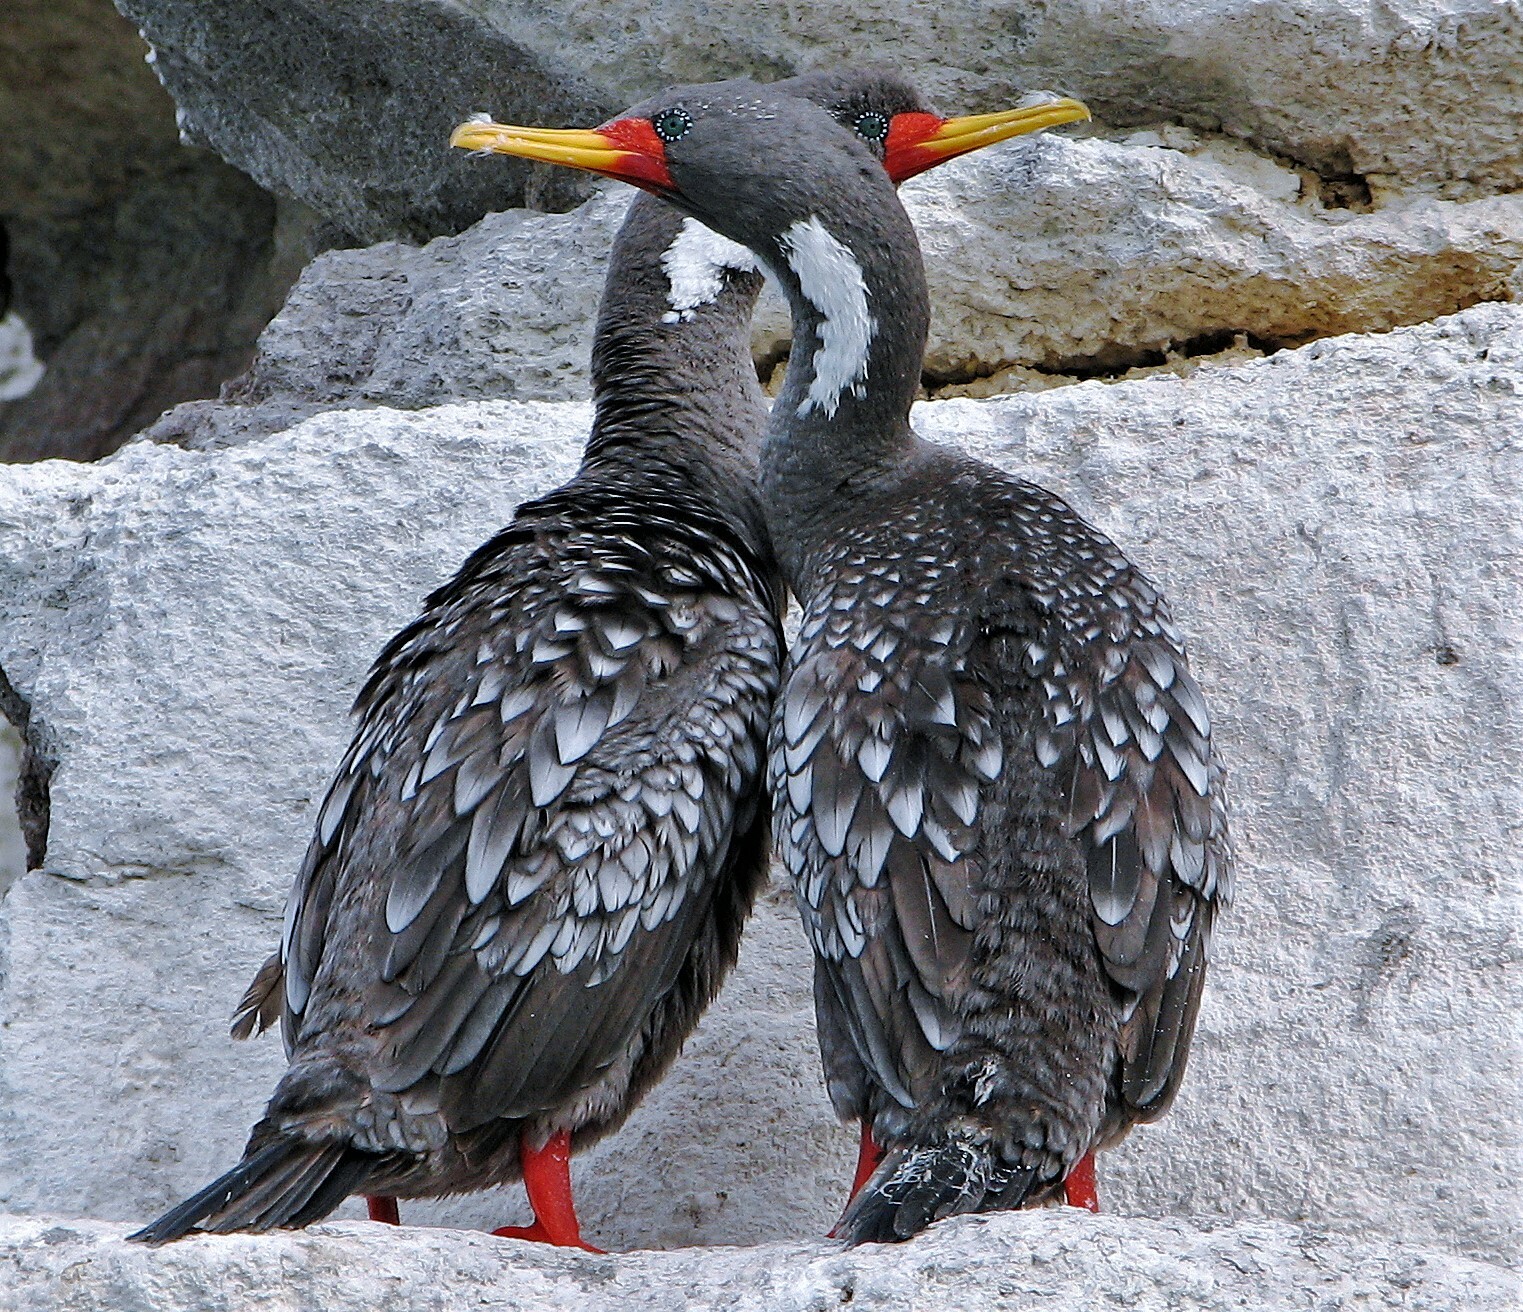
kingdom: Animalia
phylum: Chordata
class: Aves
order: Suliformes
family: Phalacrocoracidae
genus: Phalacrocorax
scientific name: Phalacrocorax gaimardi
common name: Red-legged cormorant
